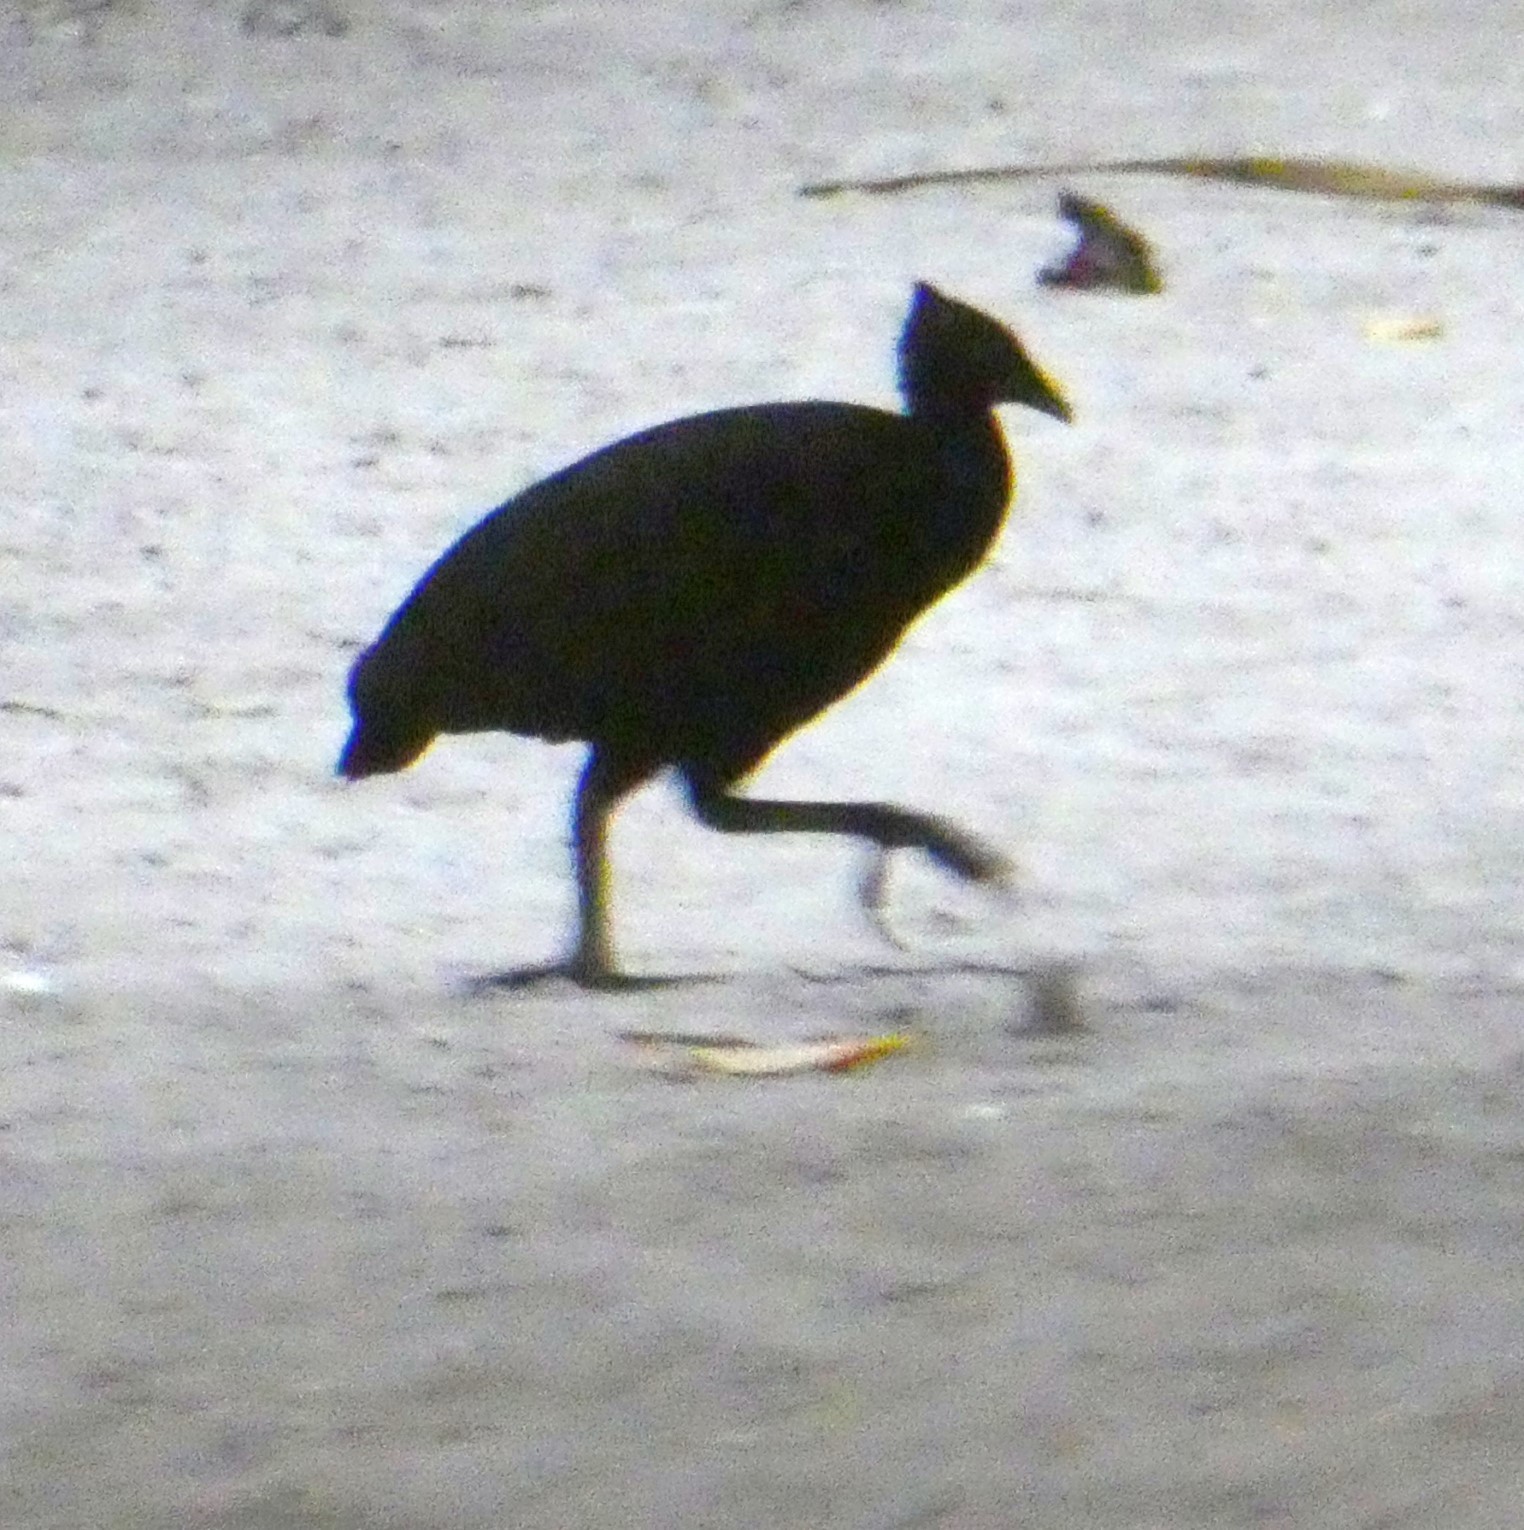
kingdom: Animalia
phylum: Chordata
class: Aves
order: Galliformes
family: Megapodiidae
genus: Megapodius
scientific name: Megapodius freycinet
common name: Dusky megapode
